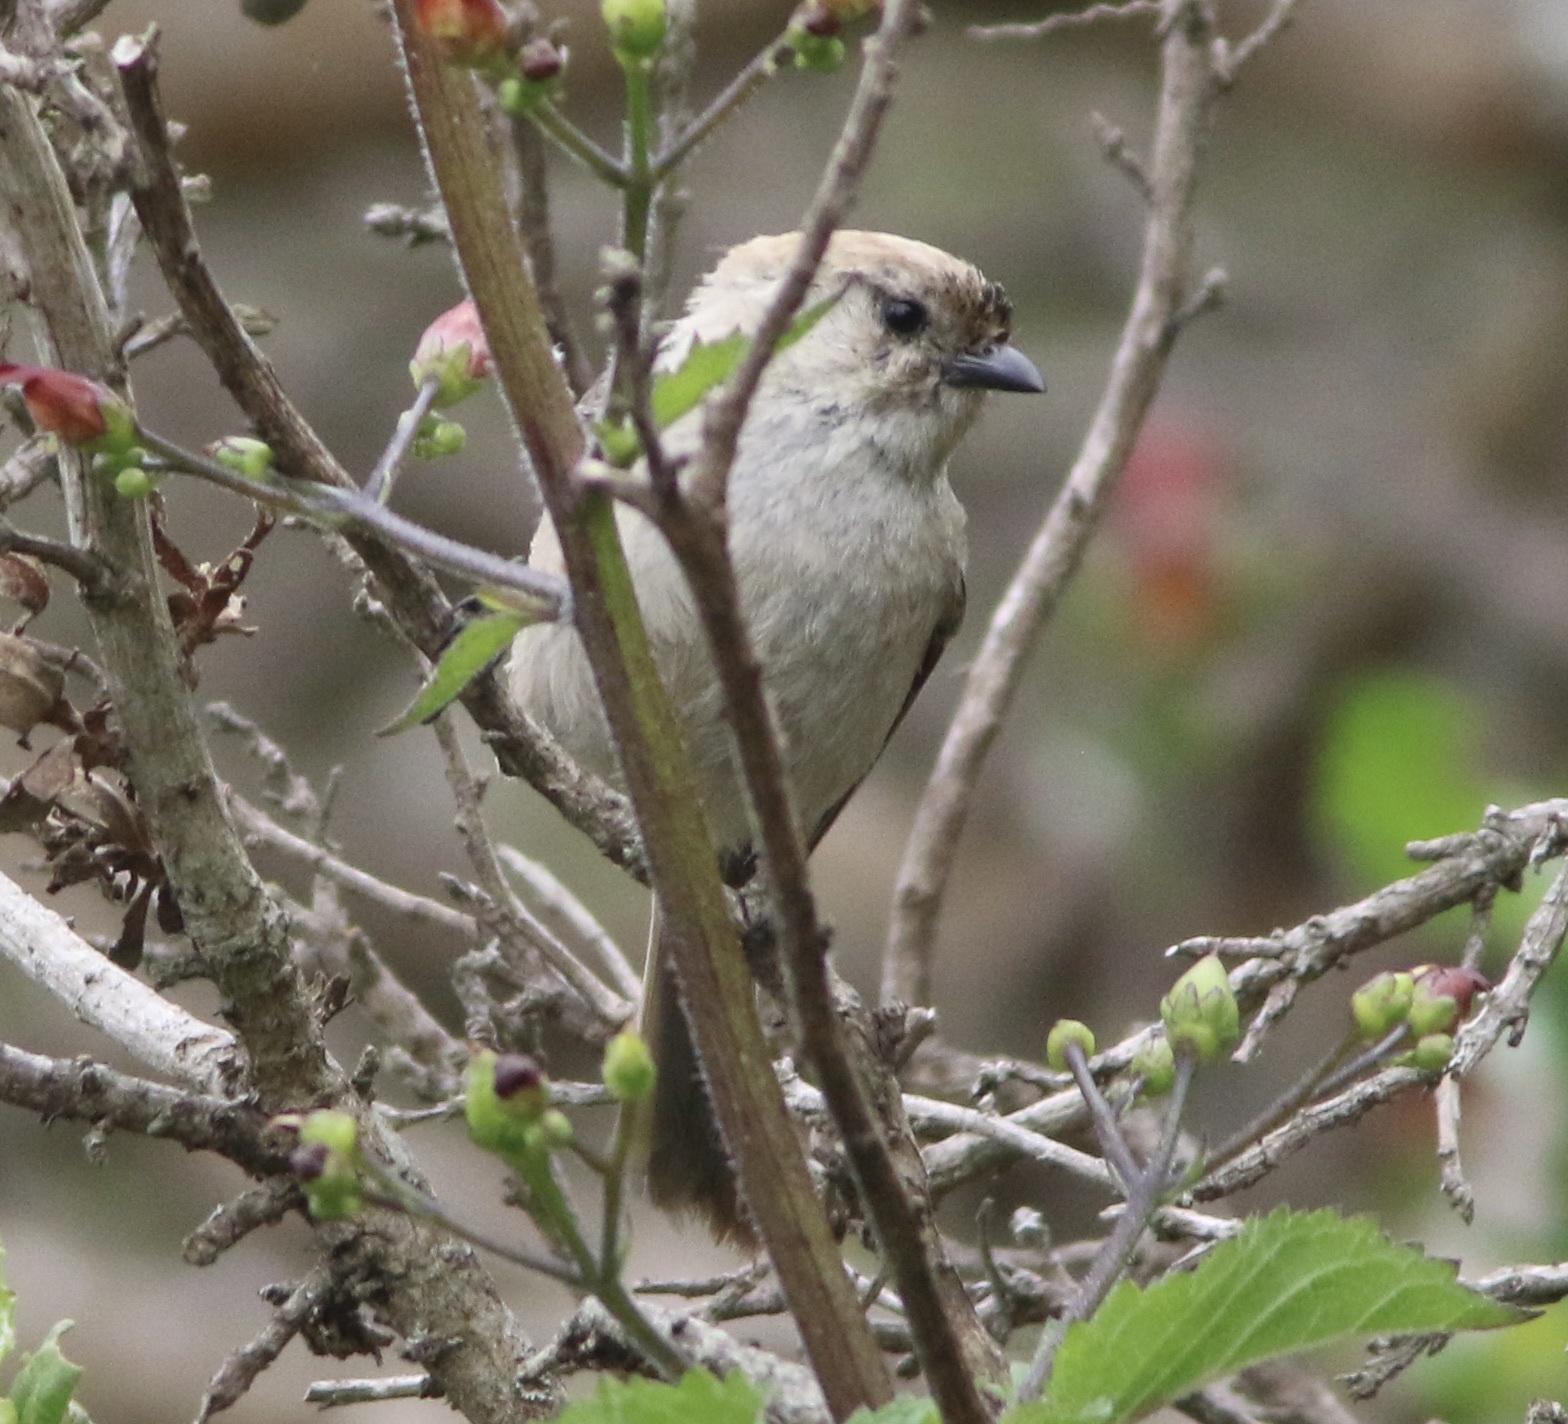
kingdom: Animalia
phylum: Chordata
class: Aves
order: Passeriformes
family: Aegithalidae
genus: Psaltriparus
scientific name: Psaltriparus minimus
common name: American bushtit
